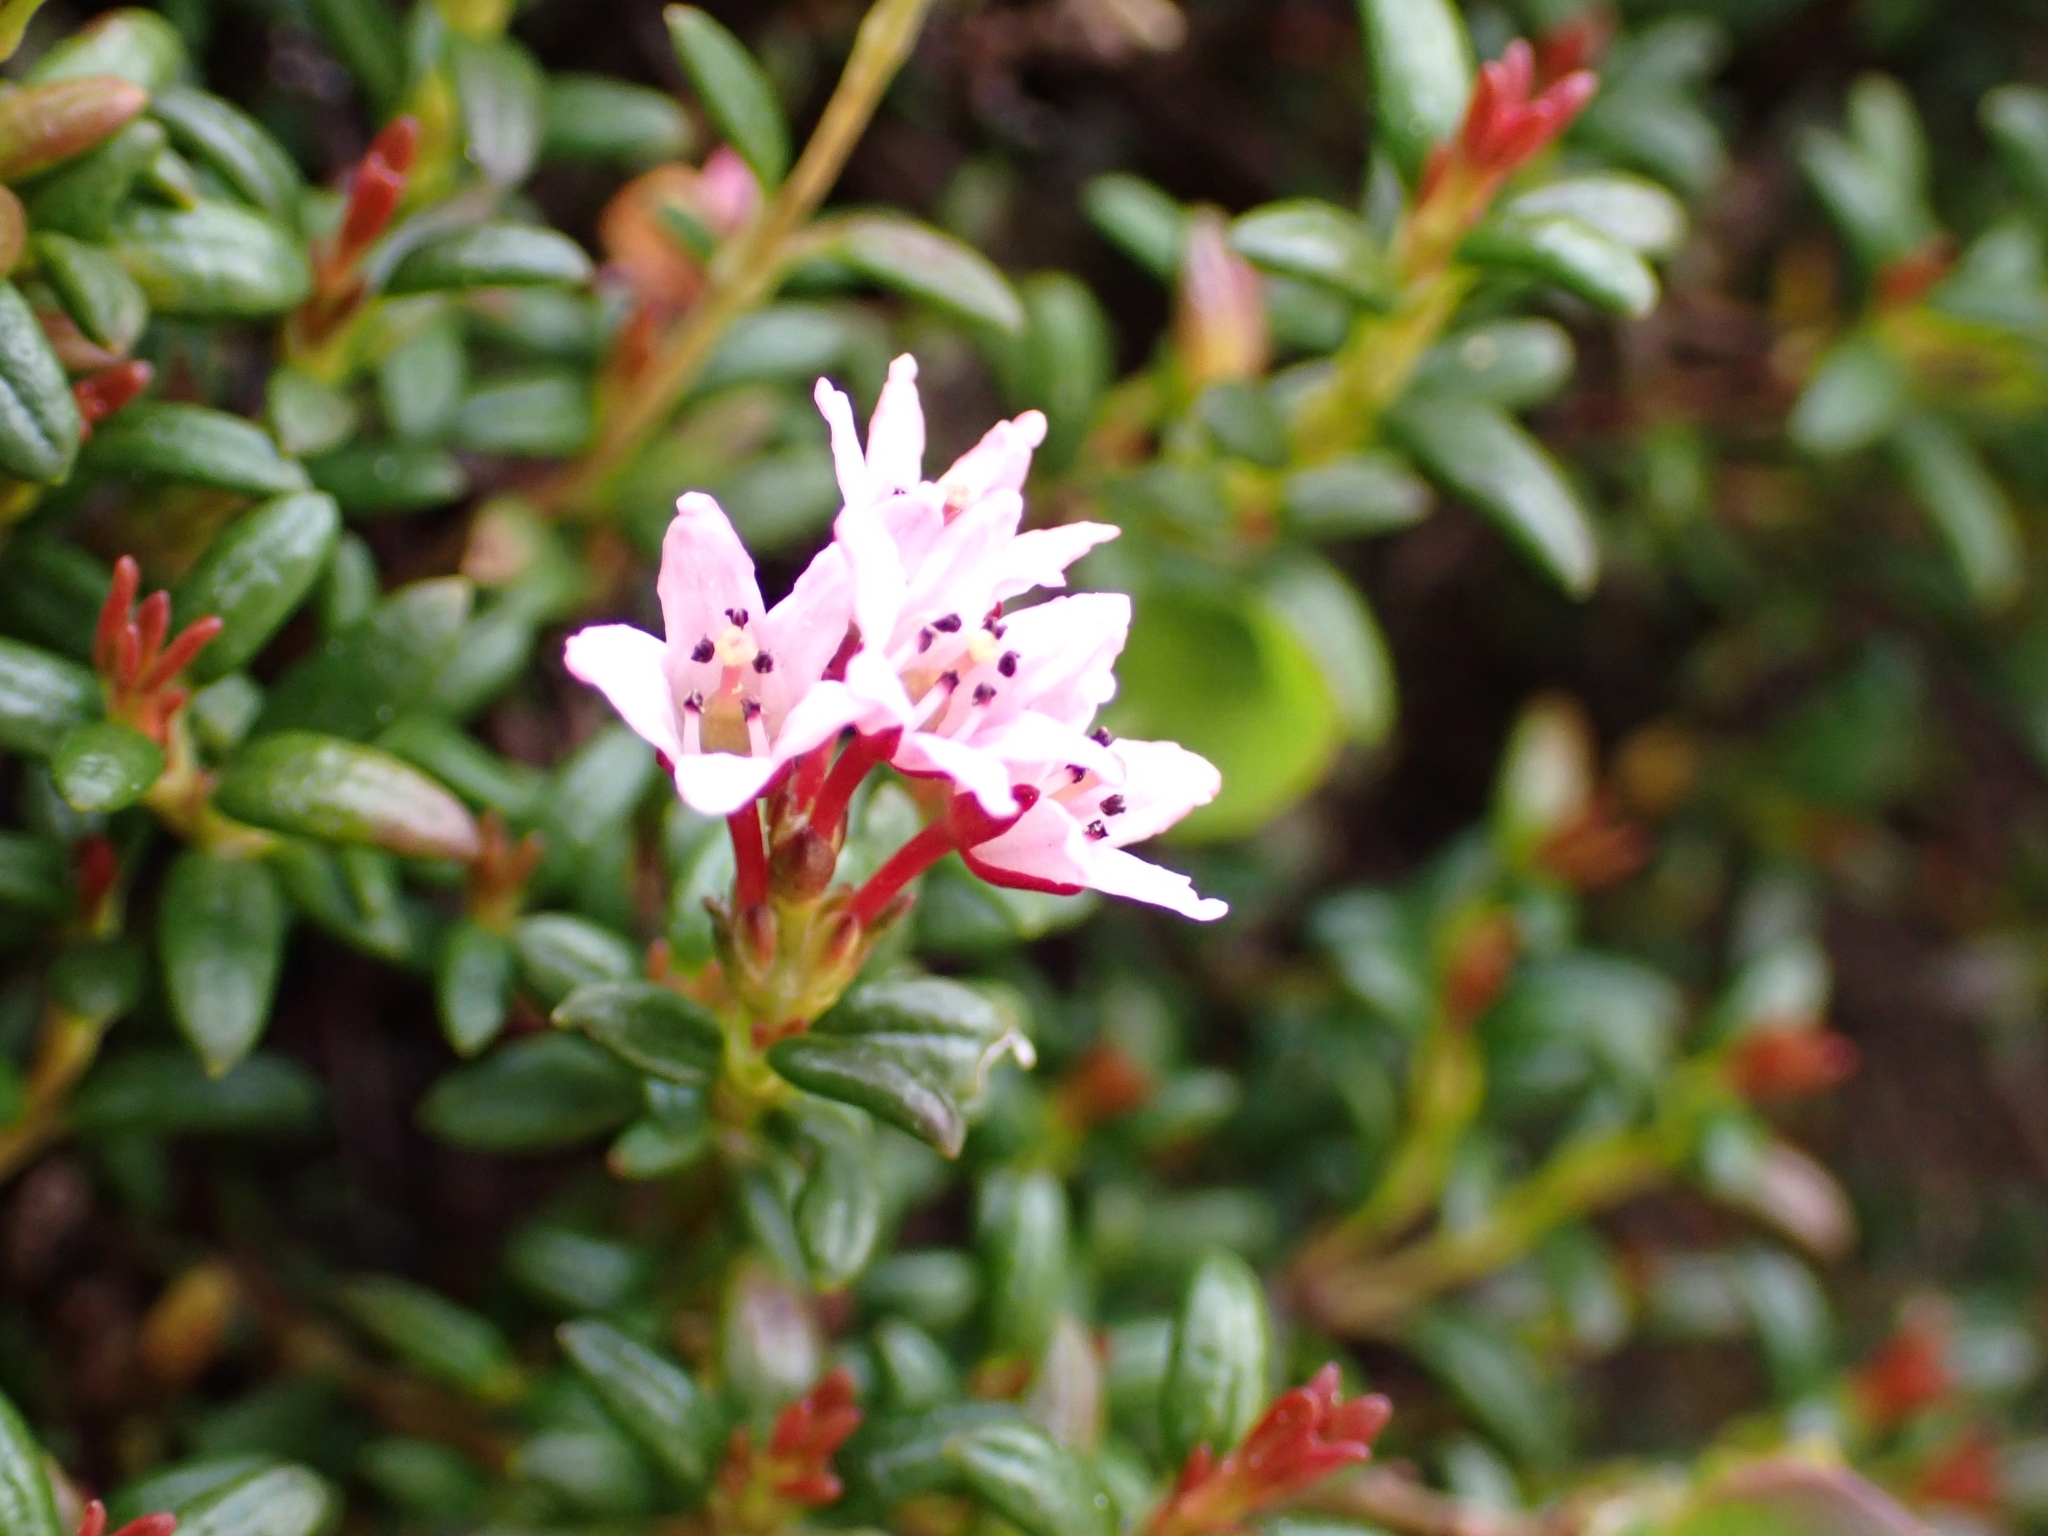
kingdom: Plantae
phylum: Tracheophyta
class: Magnoliopsida
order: Ericales
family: Ericaceae
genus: Kalmia
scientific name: Kalmia procumbens
